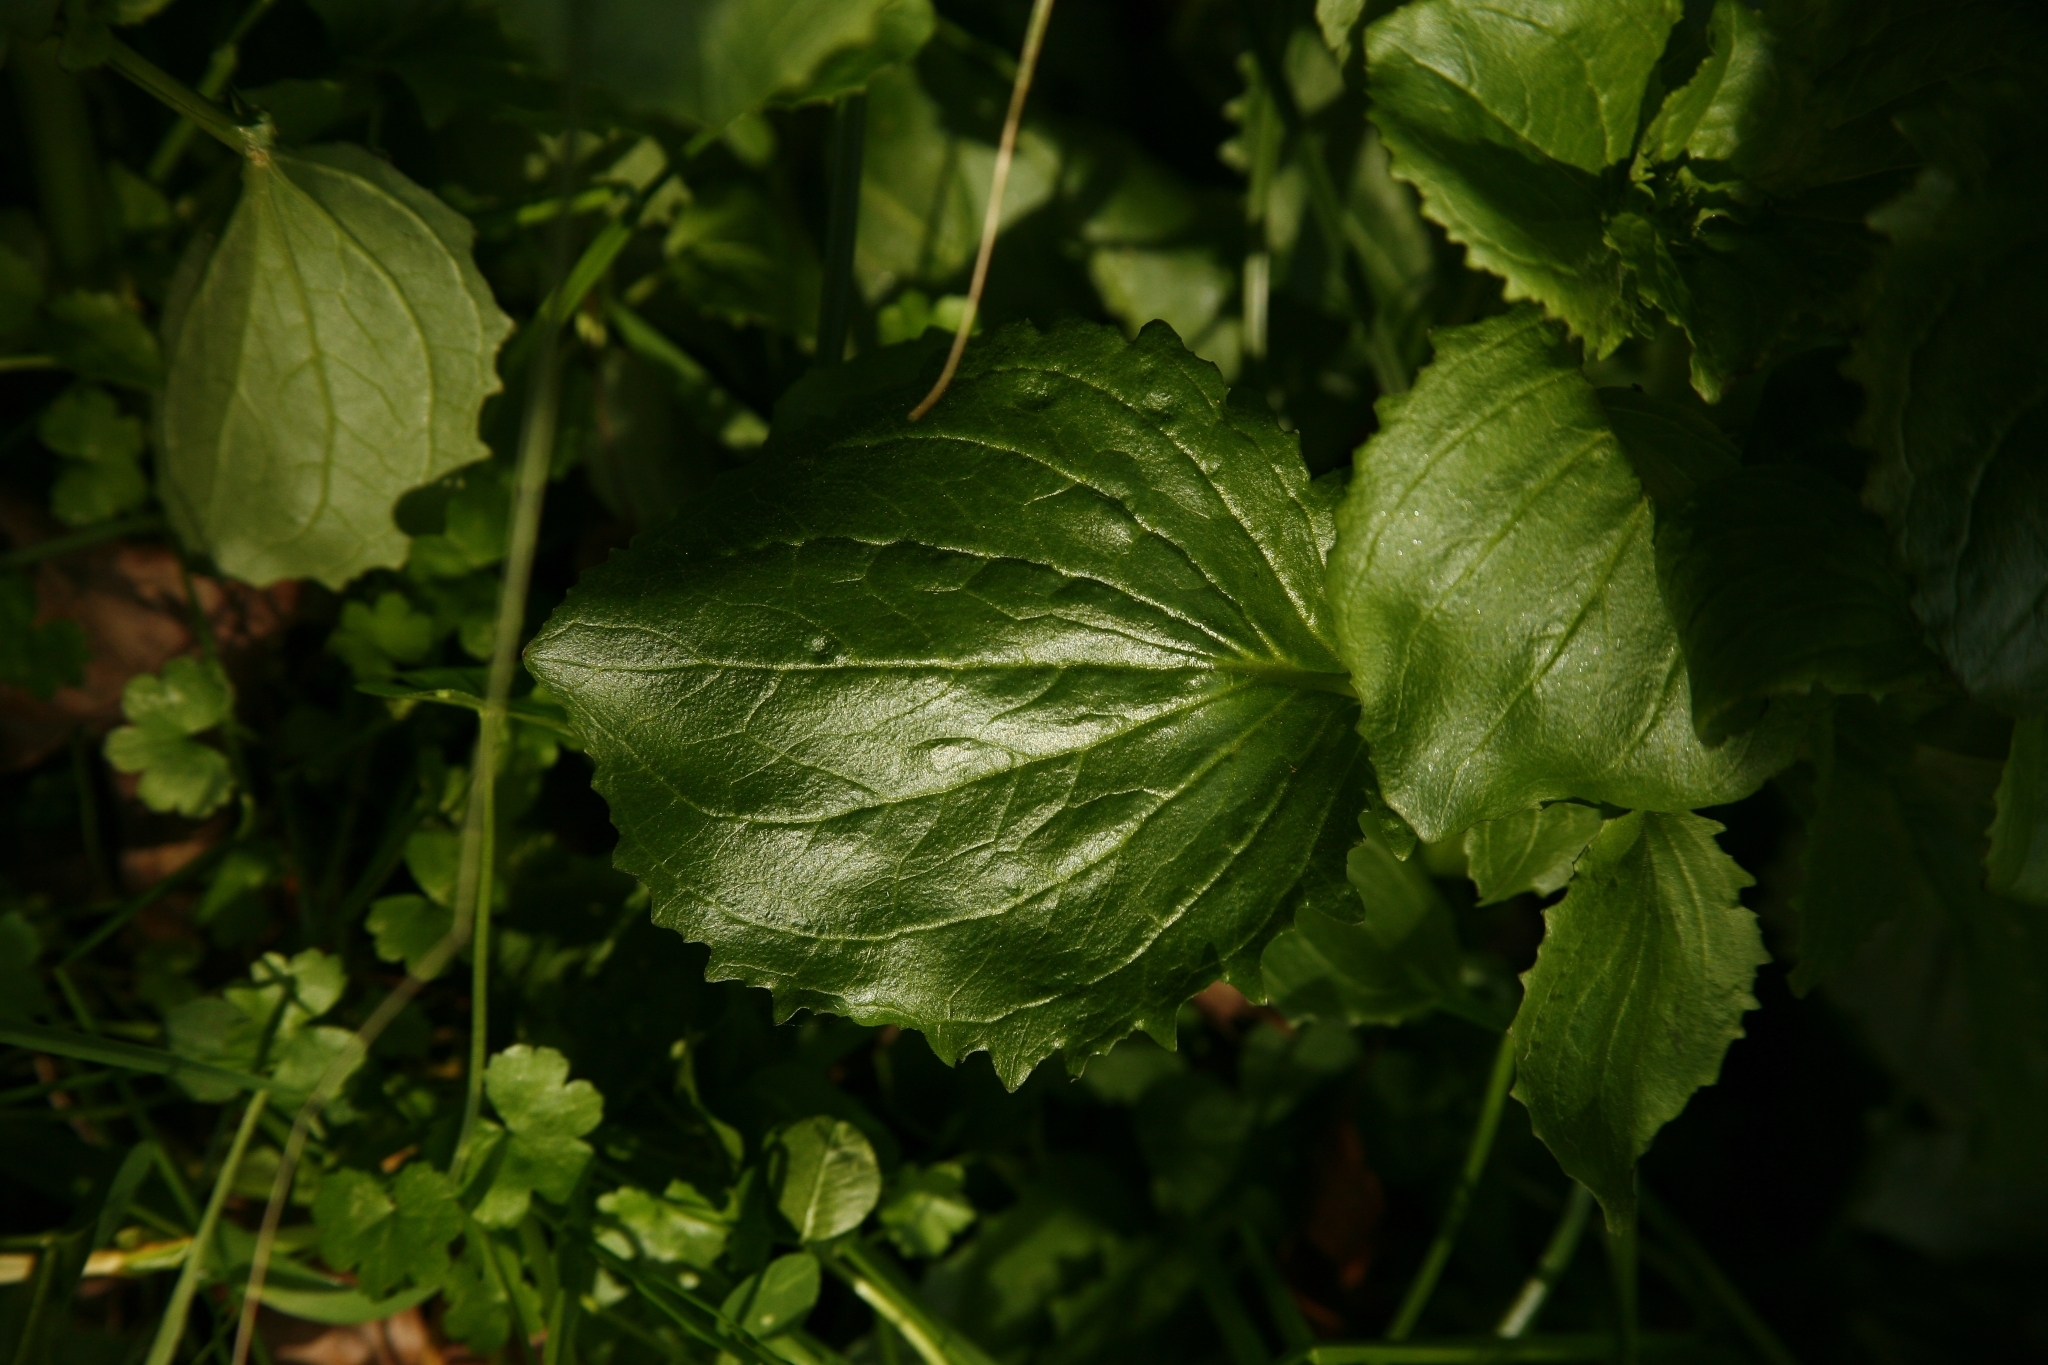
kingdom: Plantae
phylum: Tracheophyta
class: Magnoliopsida
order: Lamiales
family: Phrymaceae
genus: Erythranthe
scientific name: Erythranthe guttata
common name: Monkeyflower
